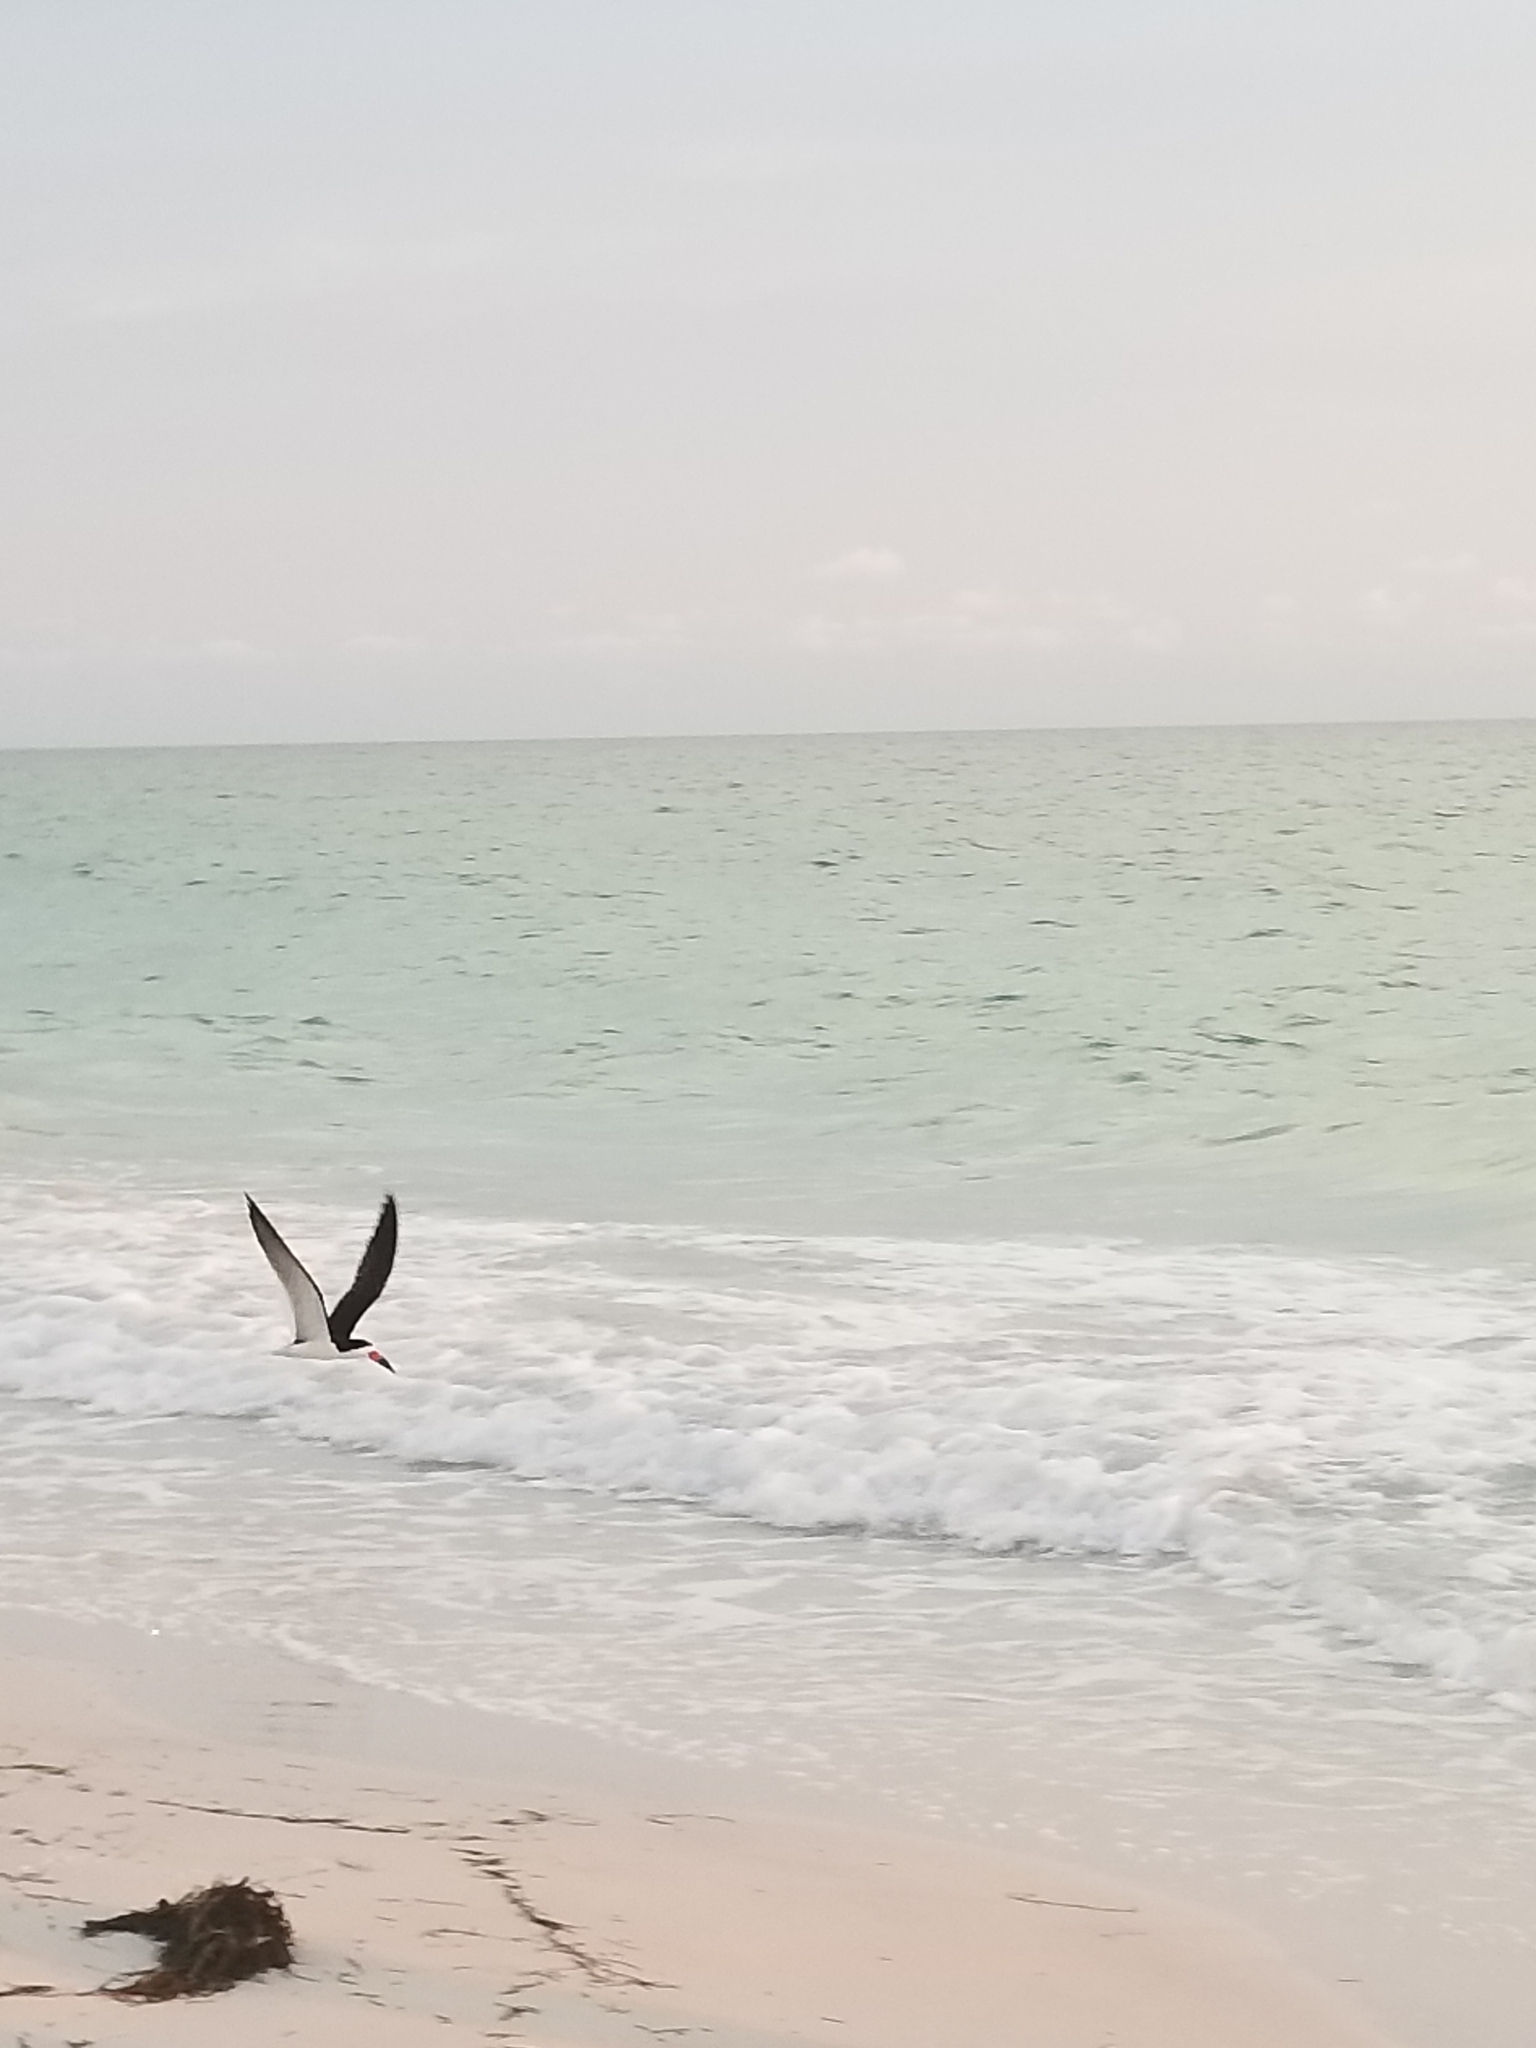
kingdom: Animalia
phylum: Chordata
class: Aves
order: Charadriiformes
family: Laridae
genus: Rynchops
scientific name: Rynchops niger
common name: Black skimmer
